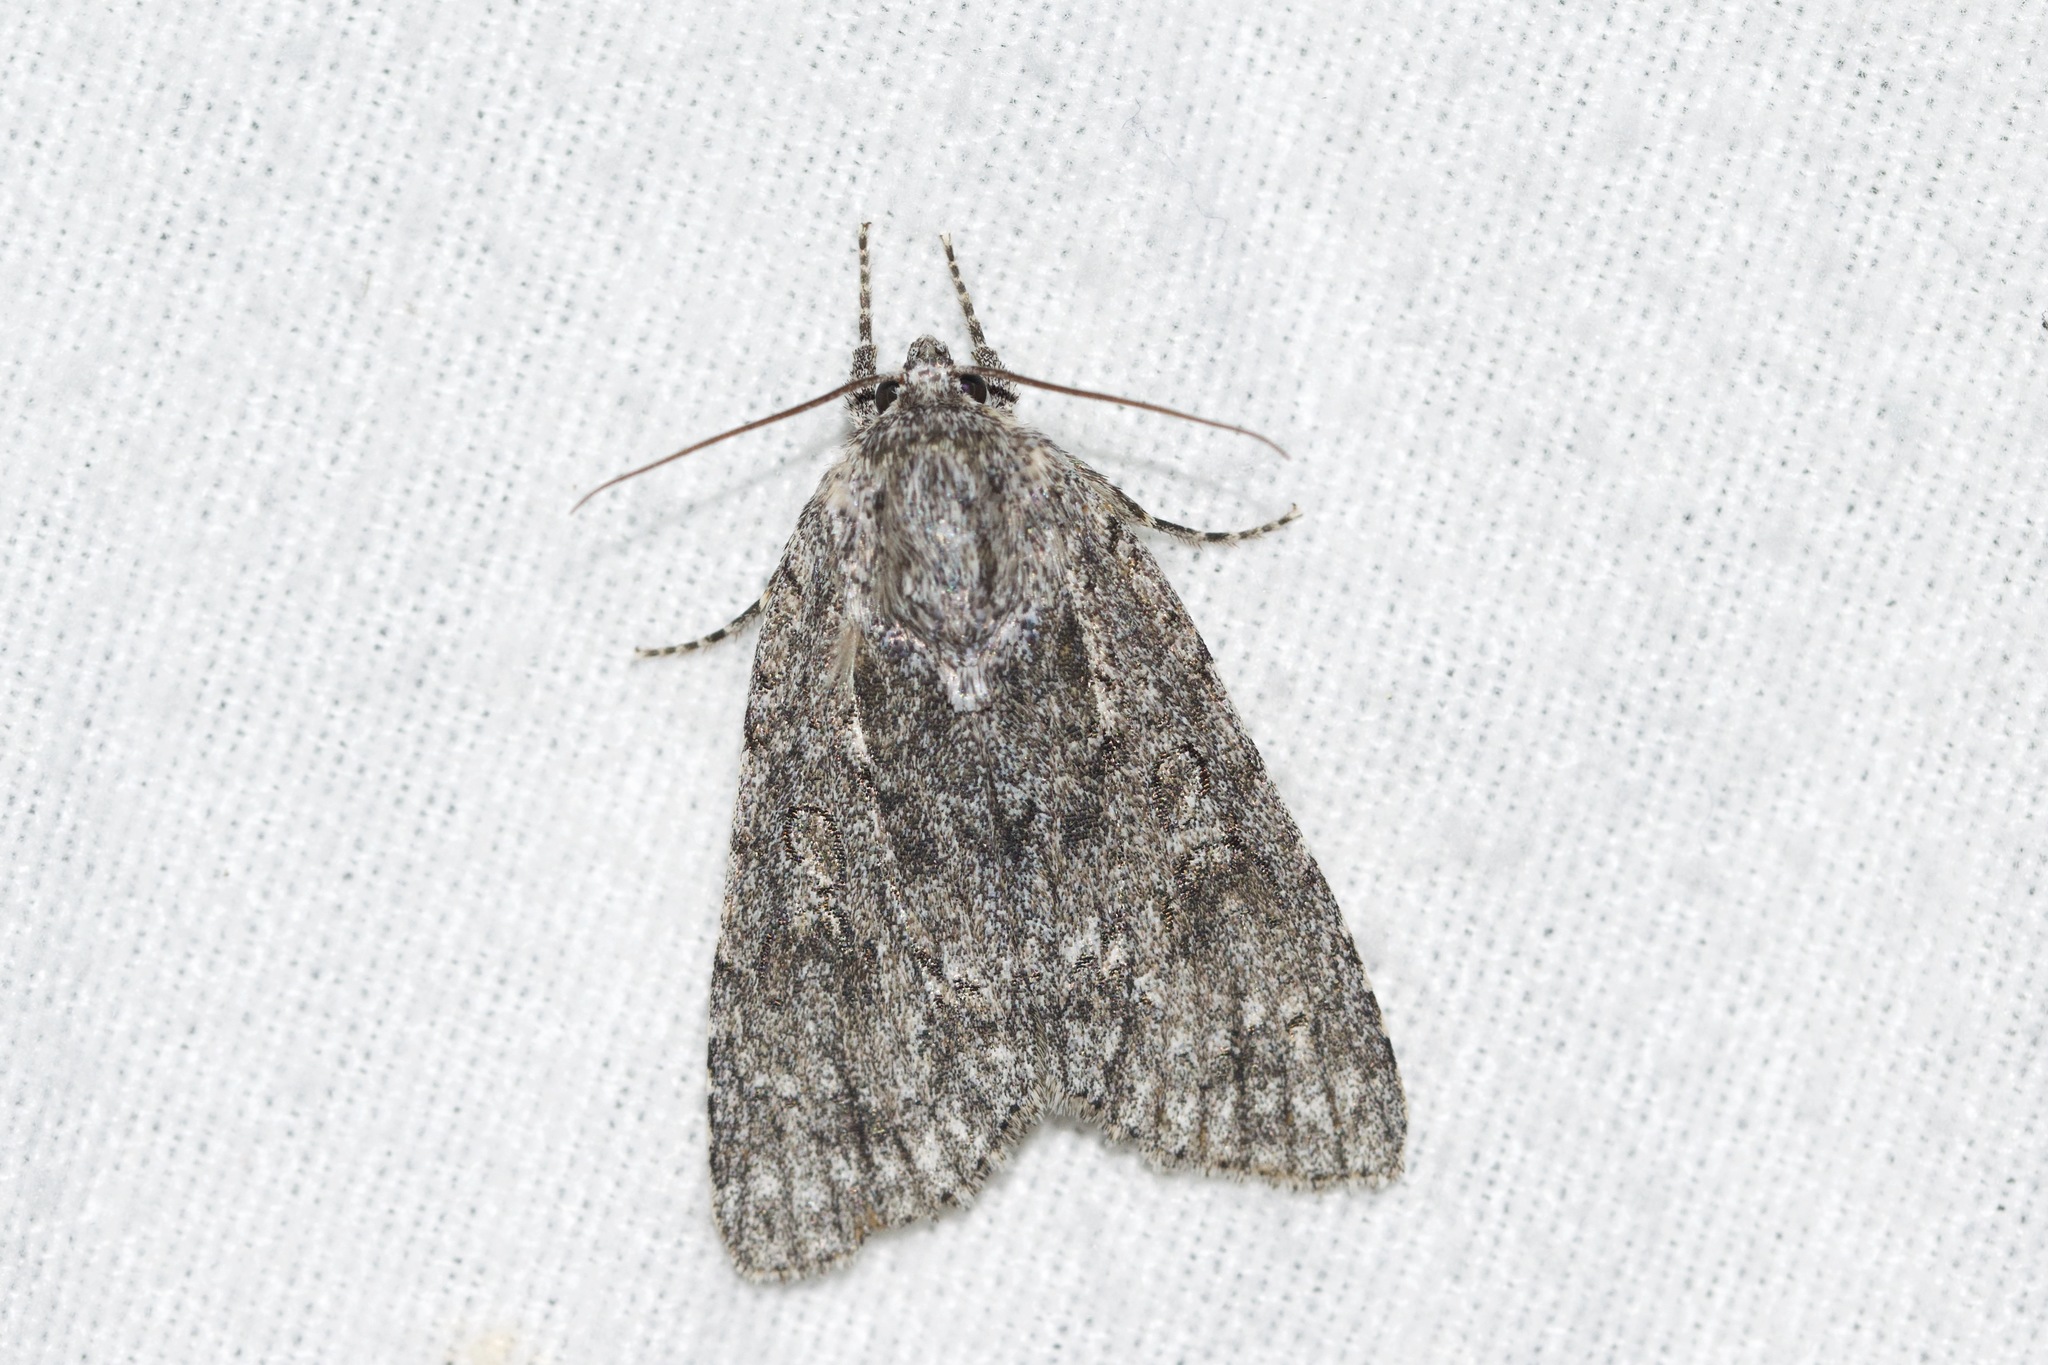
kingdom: Animalia
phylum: Arthropoda
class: Insecta
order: Lepidoptera
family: Noctuidae
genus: Acronicta
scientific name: Acronicta impleta
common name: Powdered dagger
